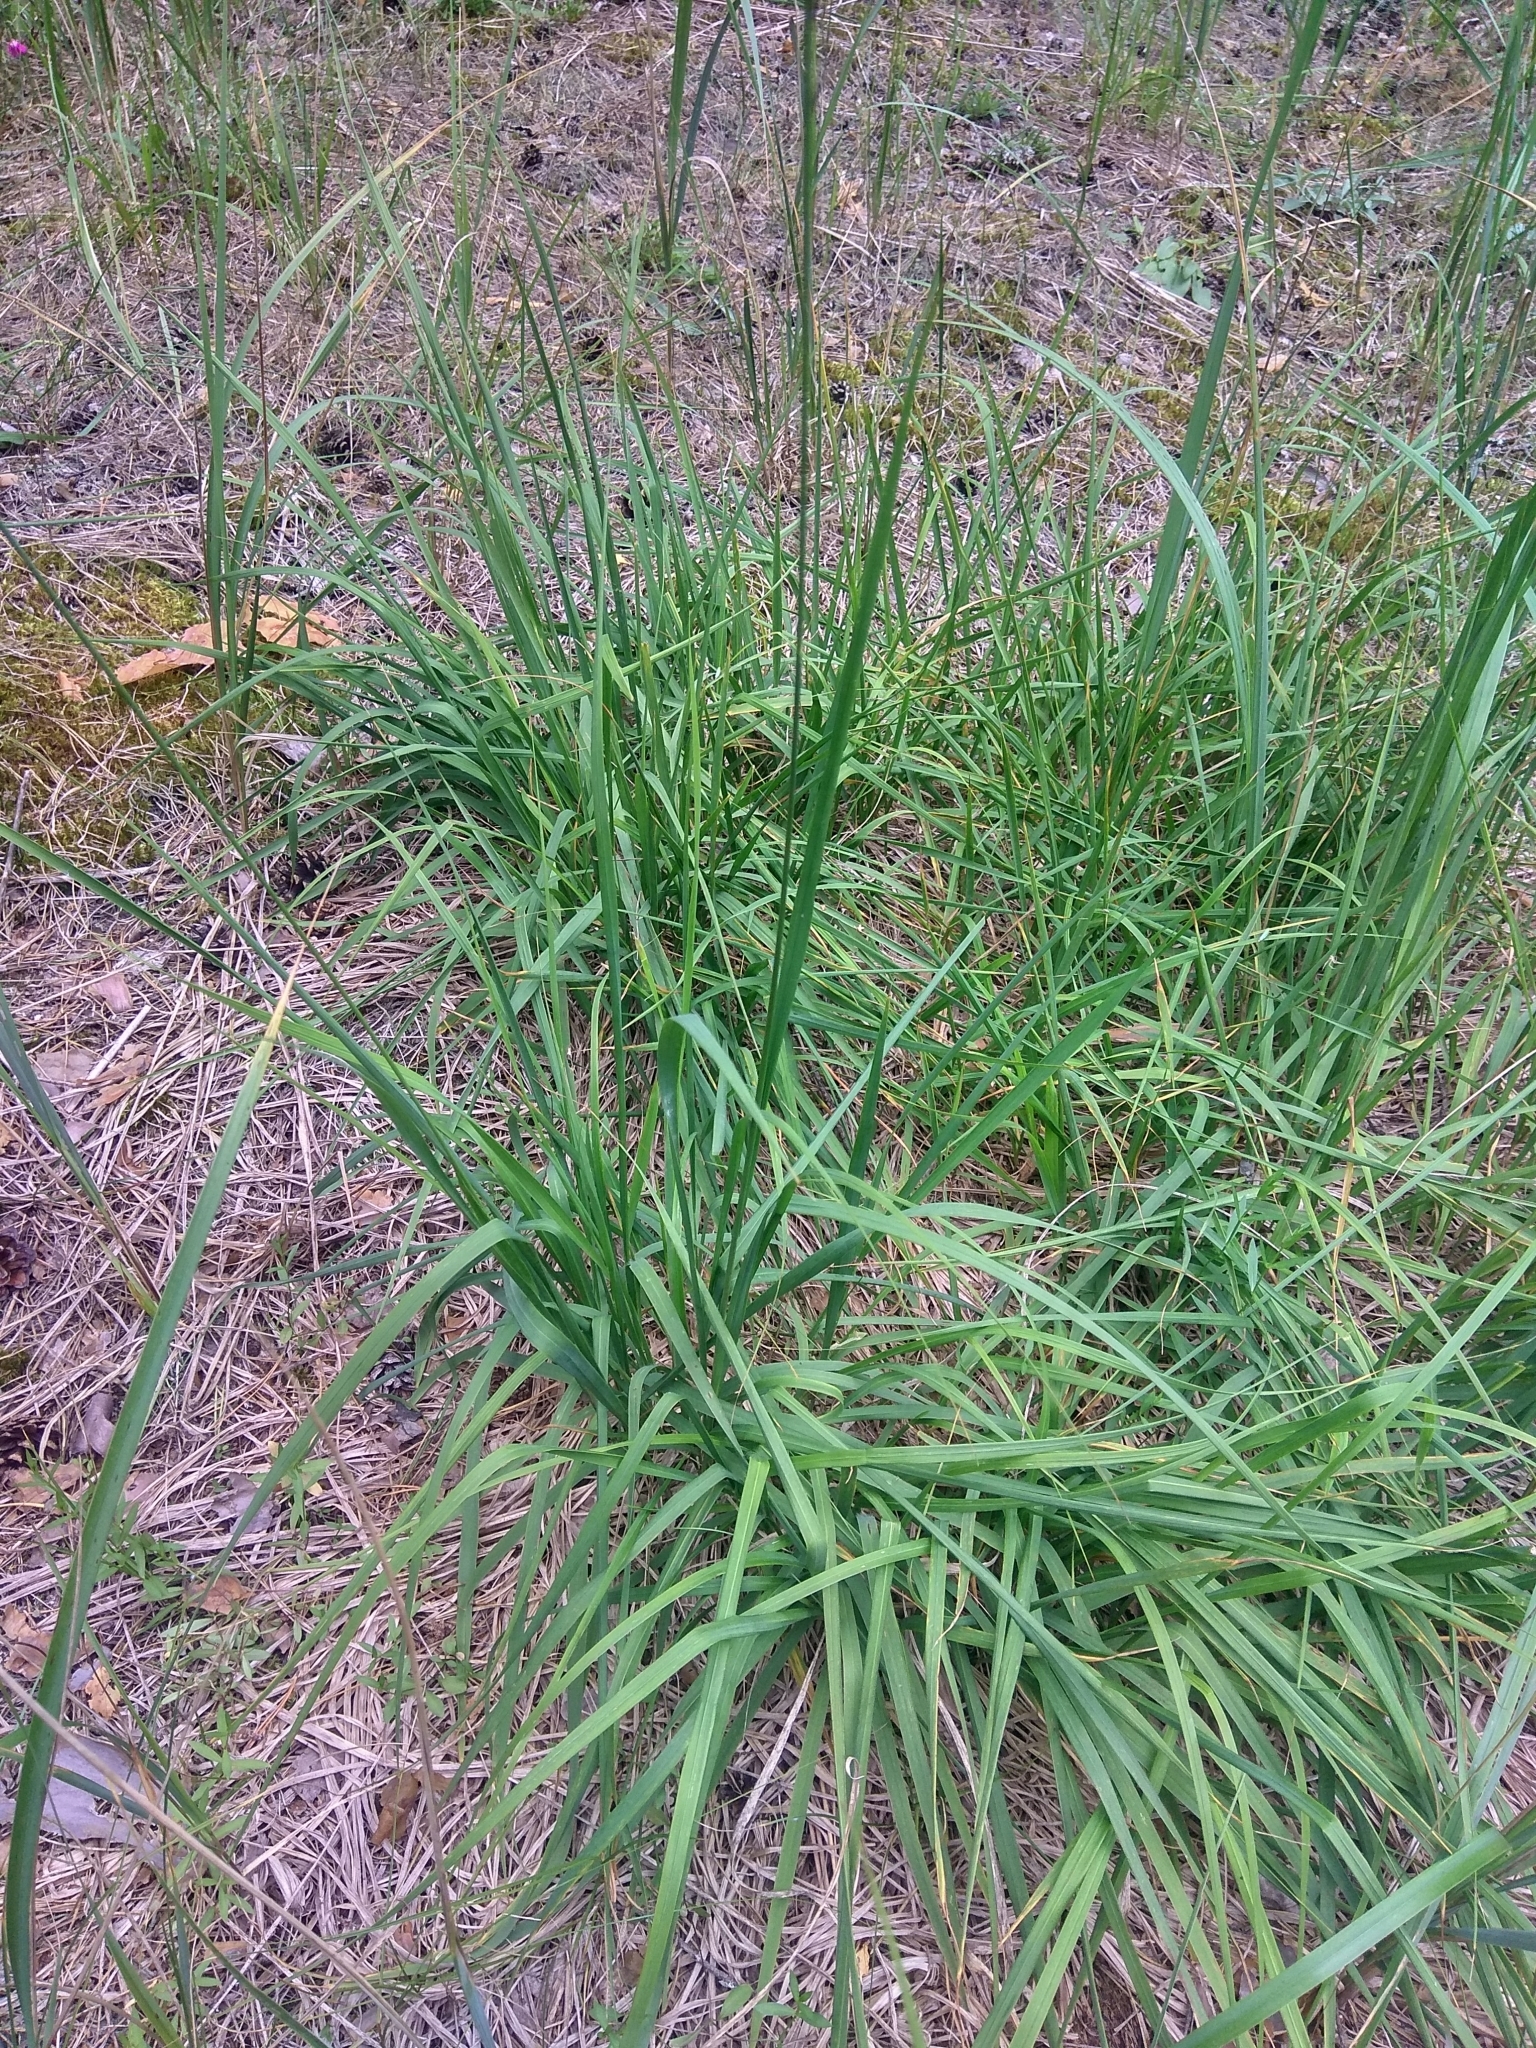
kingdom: Plantae
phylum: Tracheophyta
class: Liliopsida
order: Poales
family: Poaceae
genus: Molinia
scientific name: Molinia caerulea
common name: Purple moor-grass
